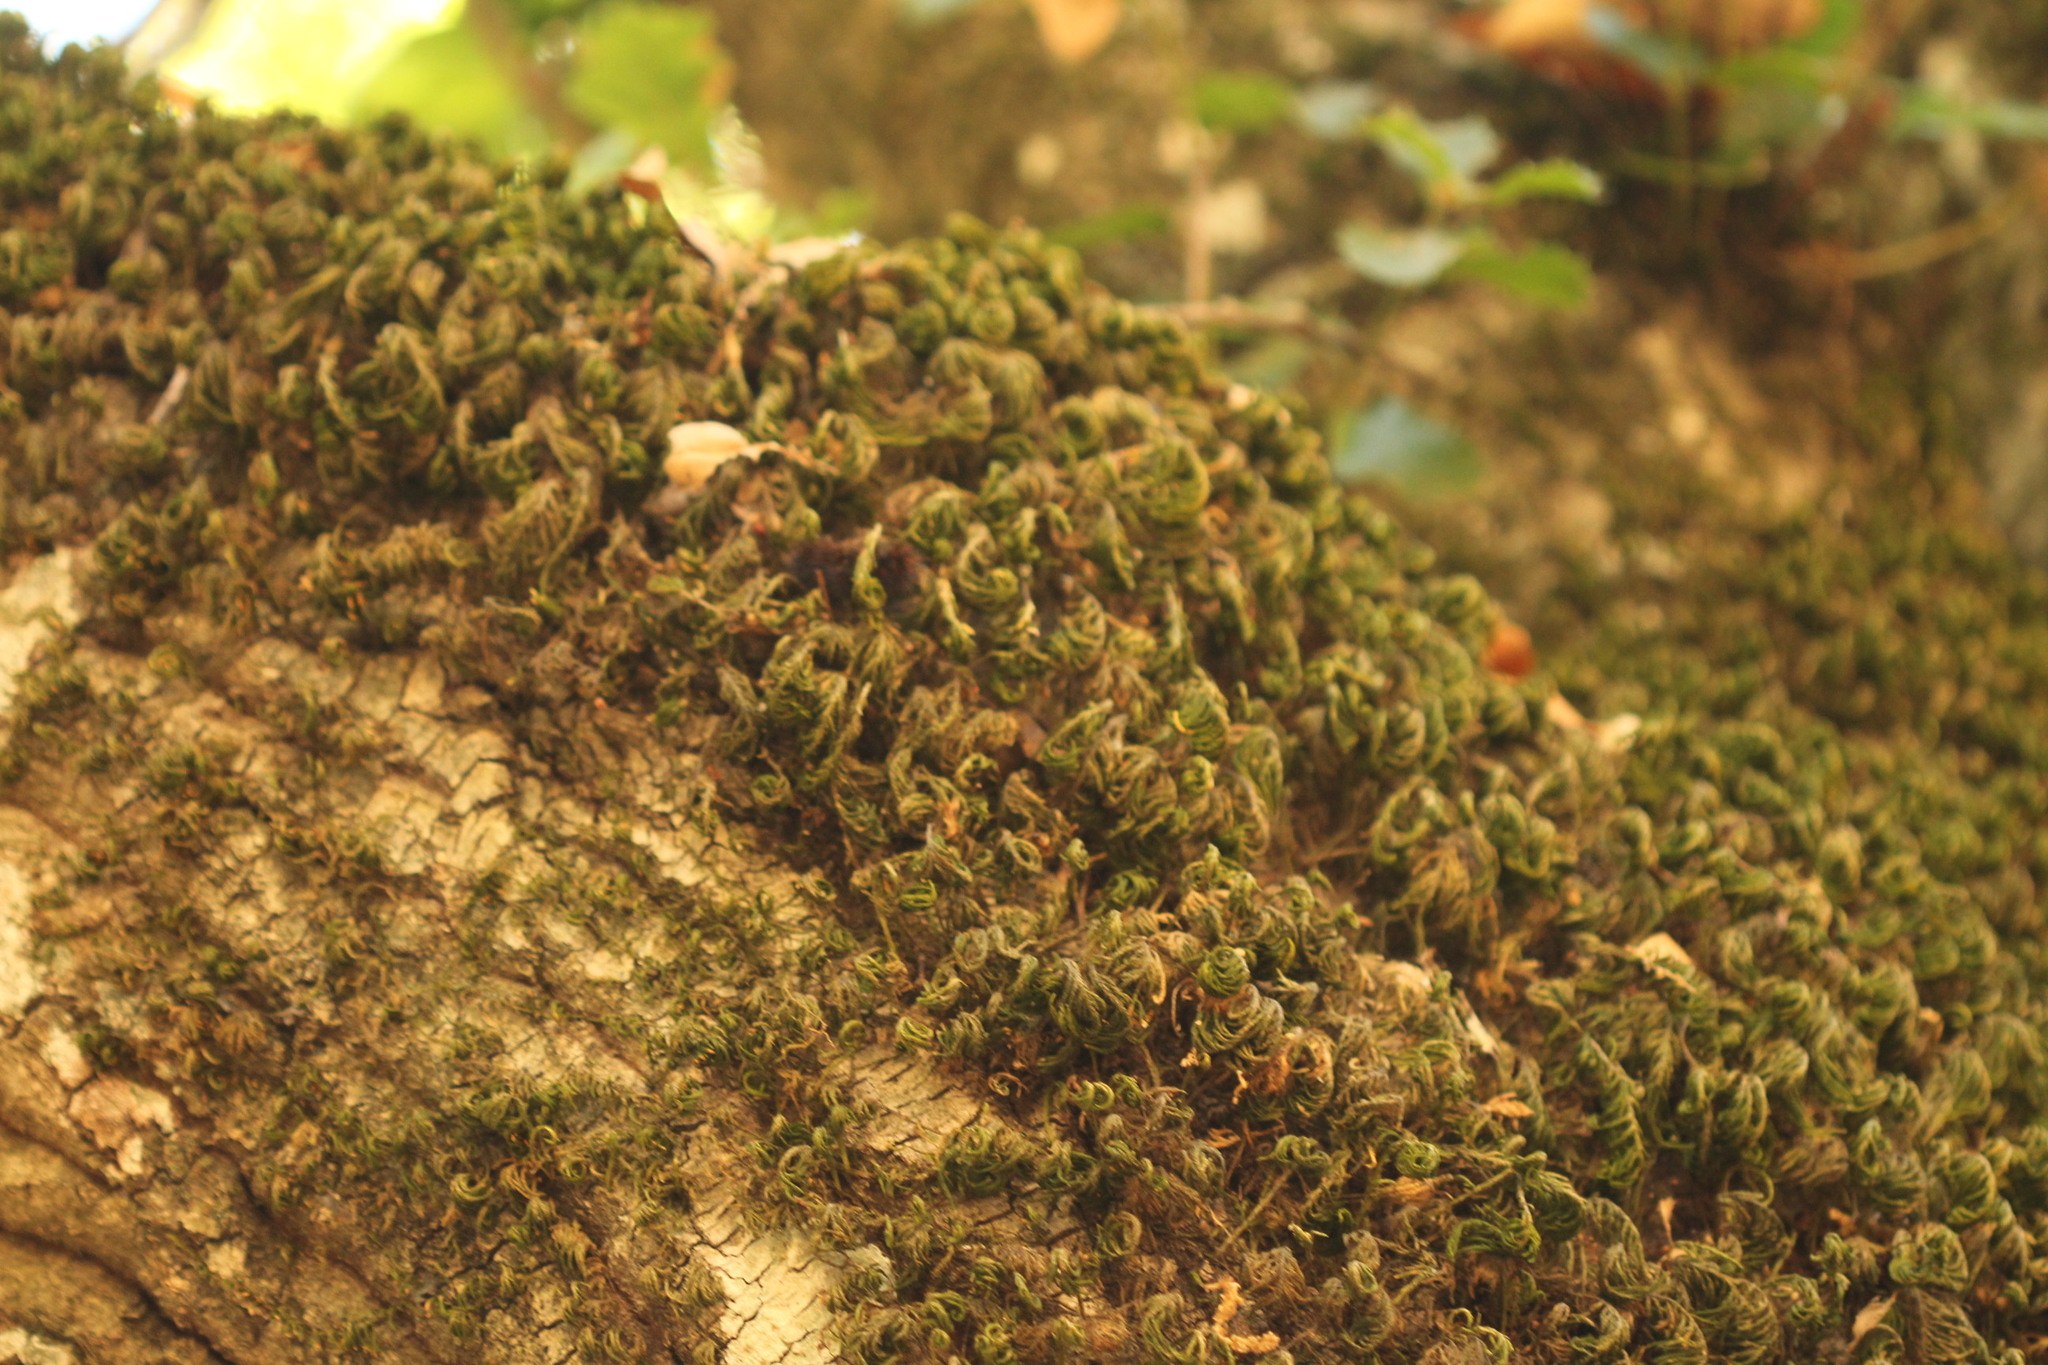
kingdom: Plantae
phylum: Bryophyta
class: Bryopsida
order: Hypnales
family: Cryphaeaceae
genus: Dendroalsia
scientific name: Dendroalsia abietina
